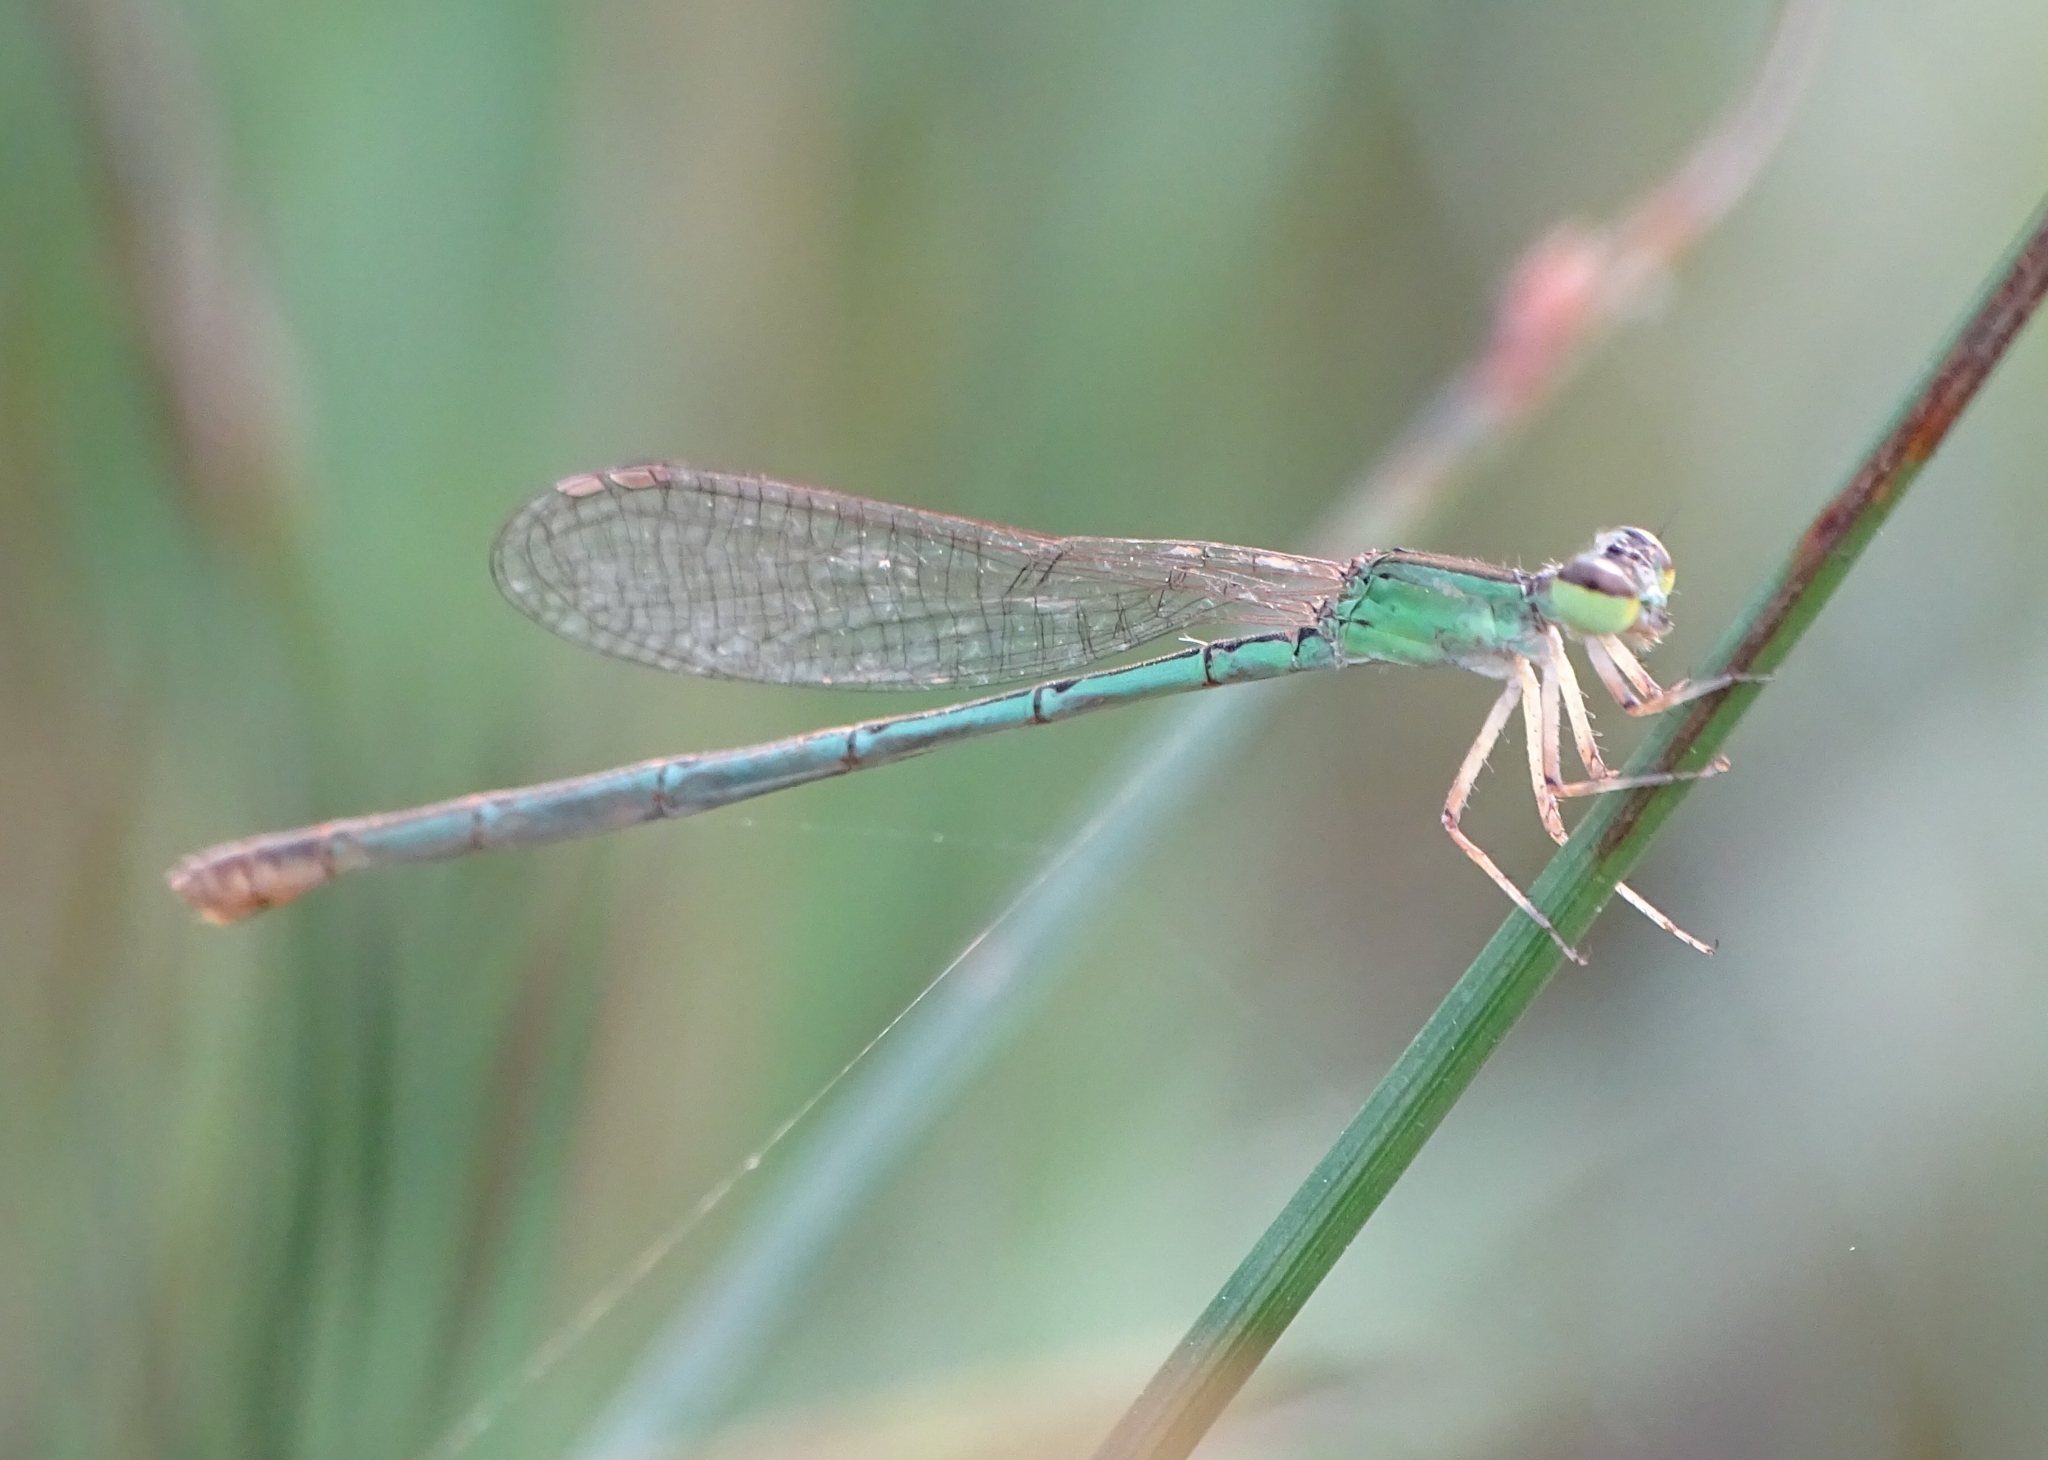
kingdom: Animalia
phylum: Arthropoda
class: Insecta
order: Odonata
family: Coenagrionidae
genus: Agriocnemis
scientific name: Agriocnemis pygmaea
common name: Pygmy wisp
